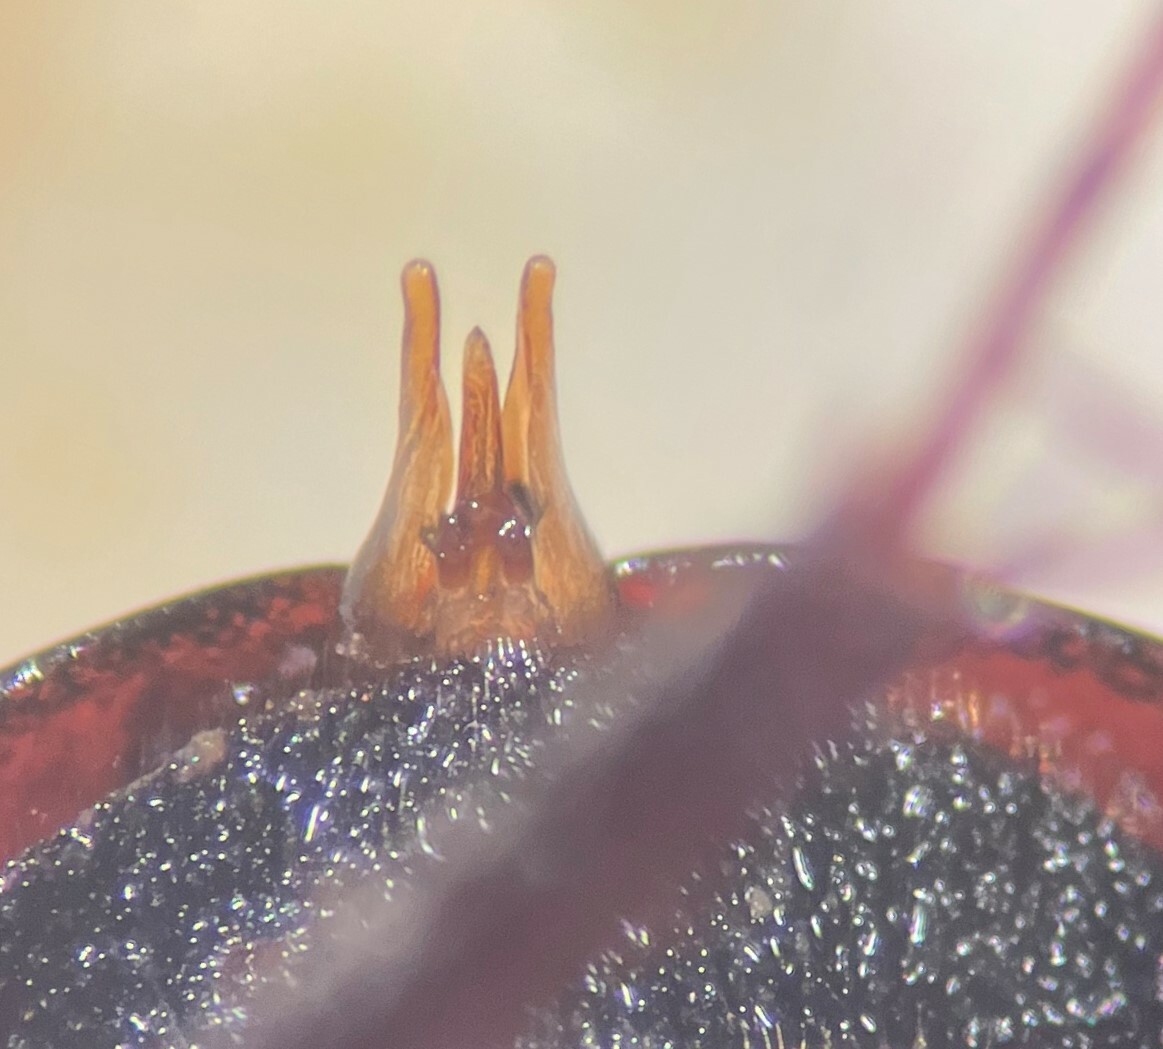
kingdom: Animalia
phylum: Arthropoda
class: Insecta
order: Coleoptera
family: Hydrophilidae
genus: Limnohydrobius
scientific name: Limnohydrobius melaenus
